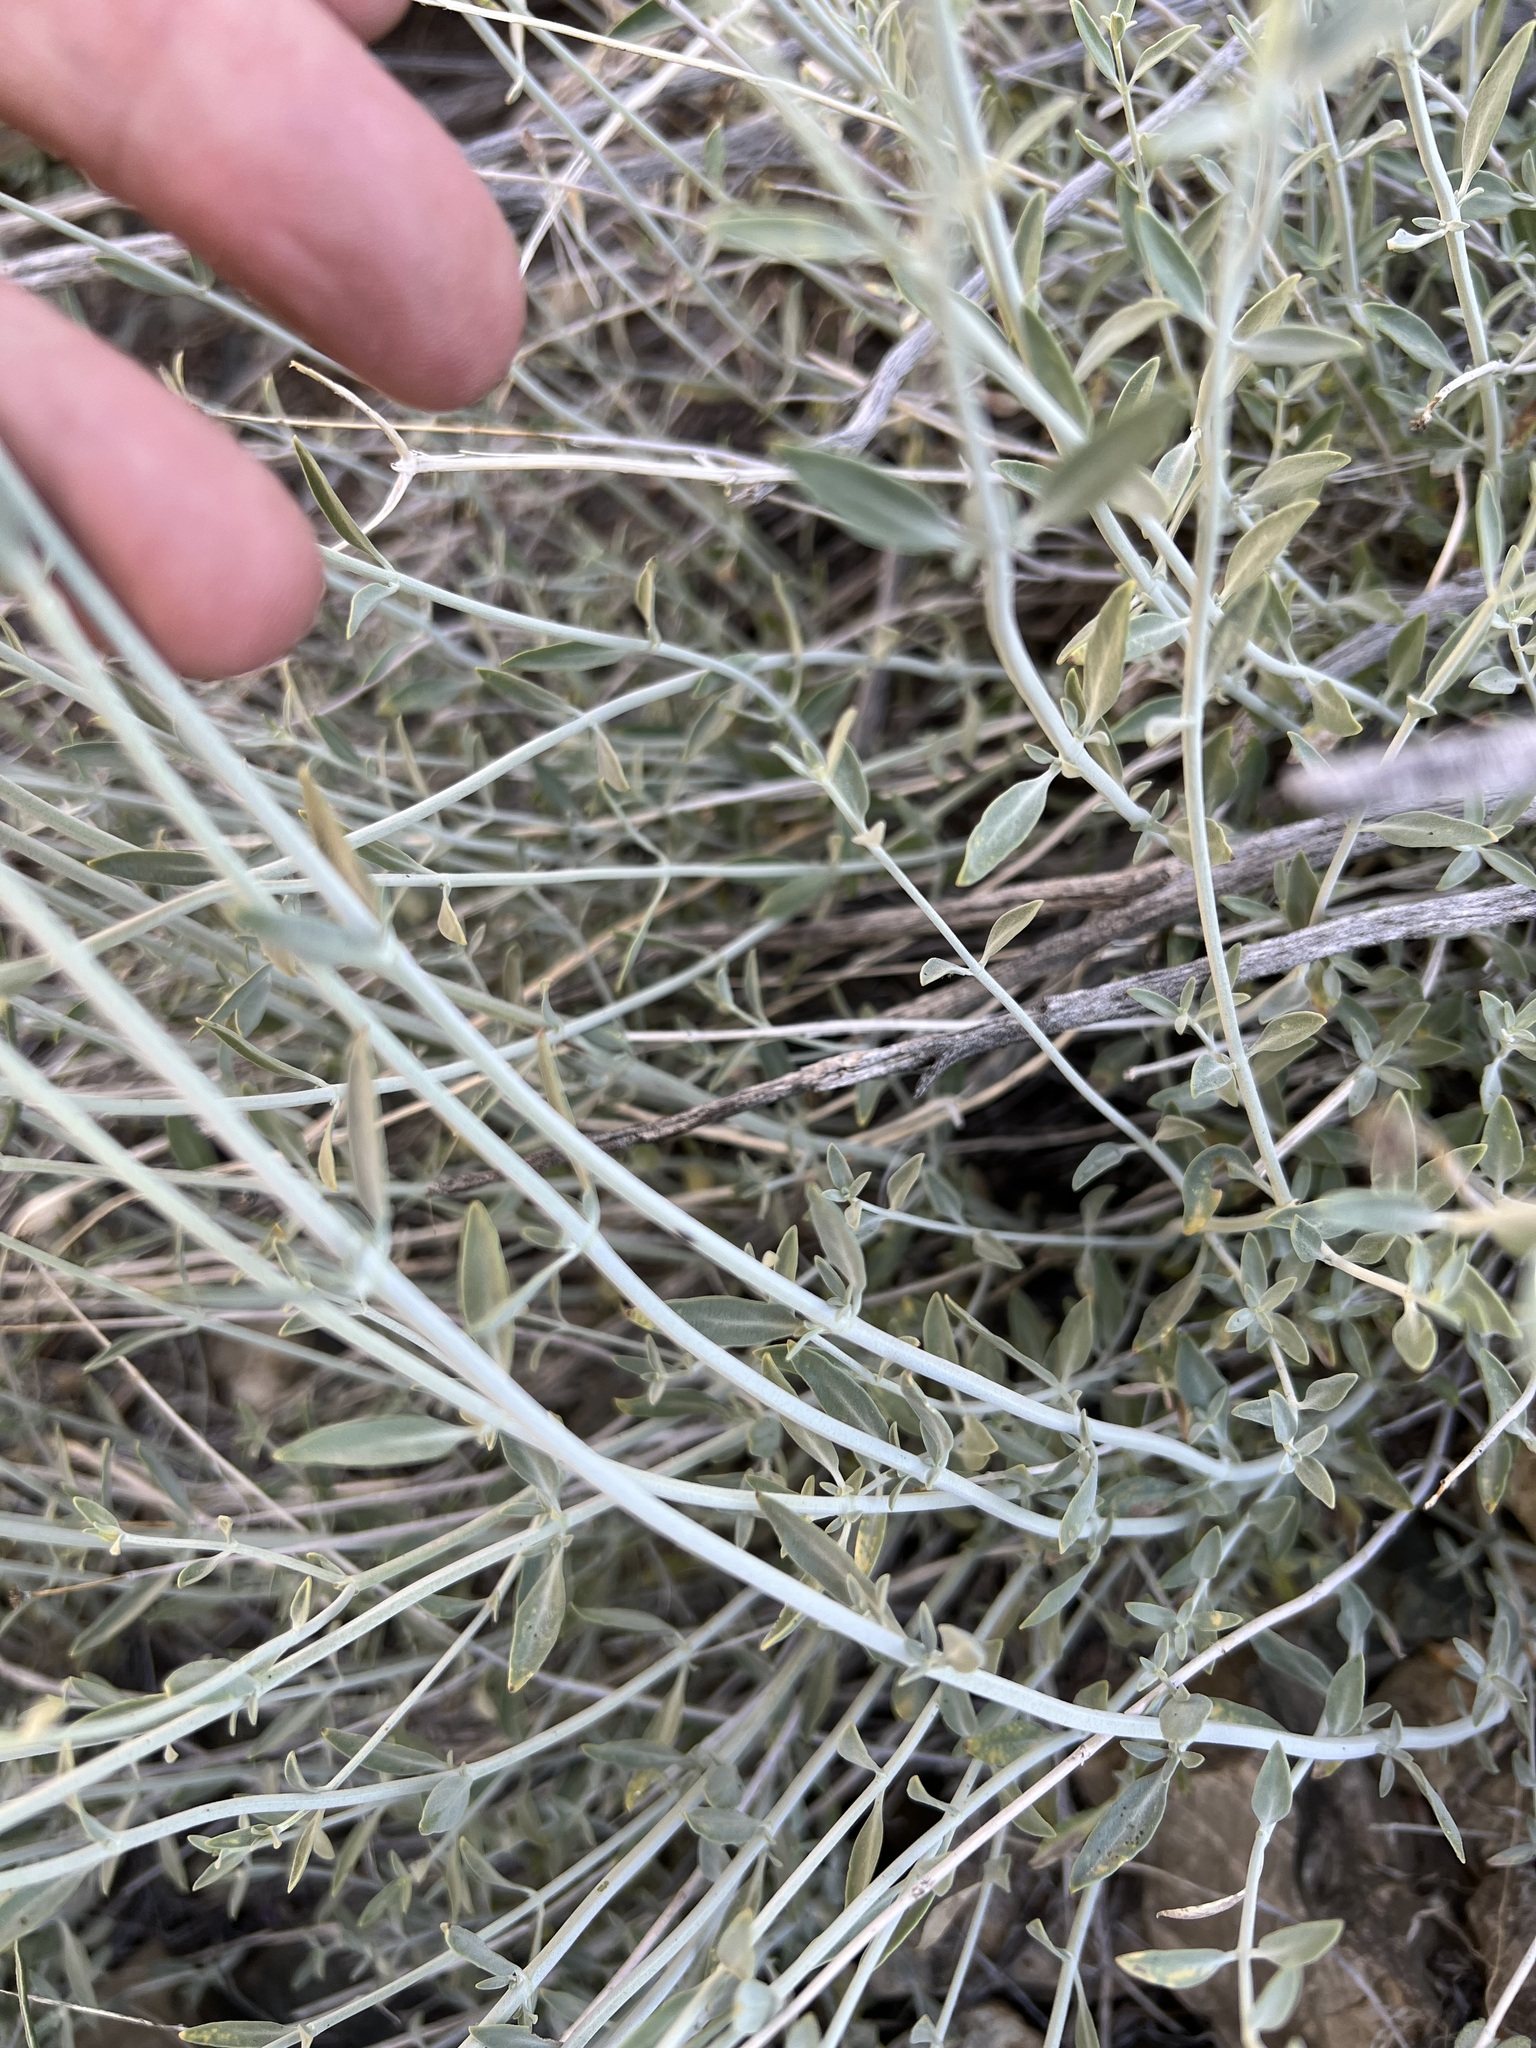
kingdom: Plantae
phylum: Tracheophyta
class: Magnoliopsida
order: Lamiales
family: Lamiaceae
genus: Monardella
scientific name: Monardella linoides
